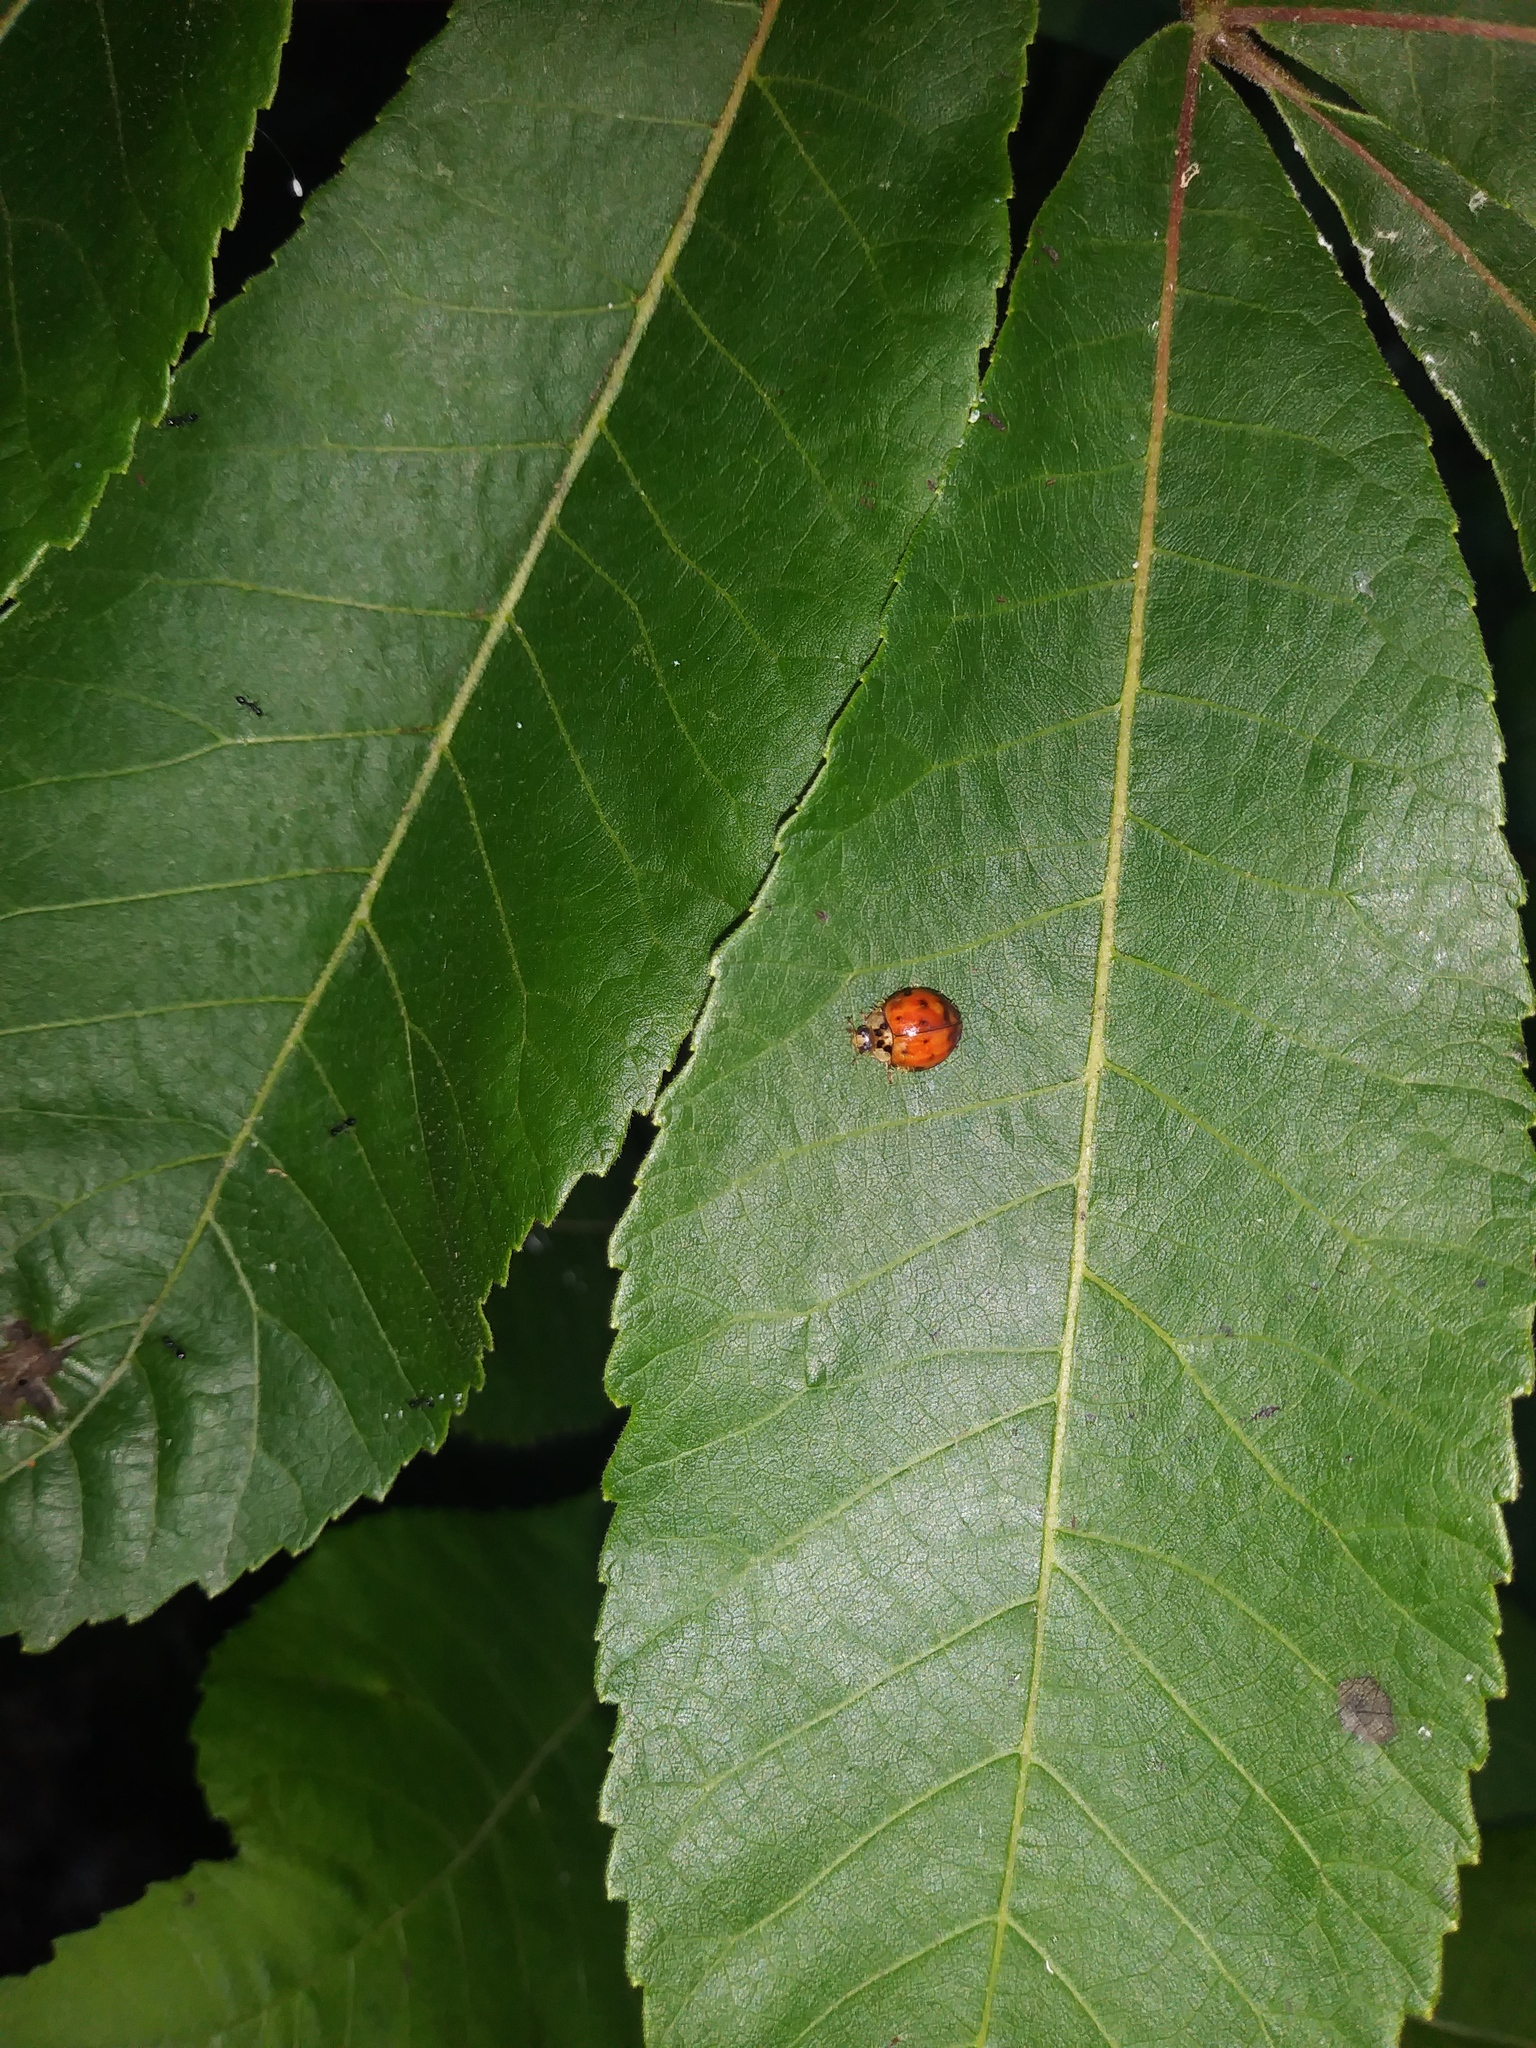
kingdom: Animalia
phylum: Arthropoda
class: Insecta
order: Coleoptera
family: Coccinellidae
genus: Harmonia
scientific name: Harmonia axyridis
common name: Harlequin ladybird
